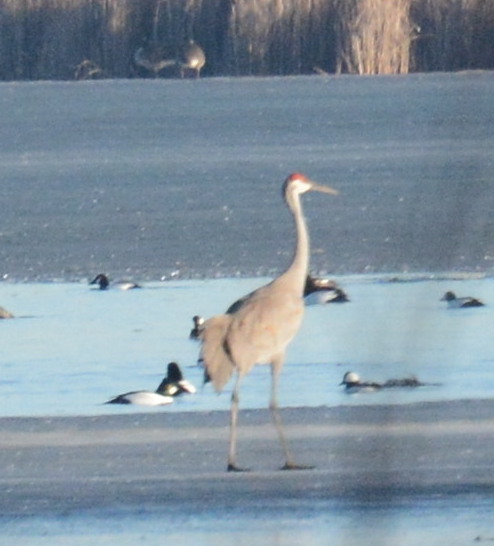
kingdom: Animalia
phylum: Chordata
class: Aves
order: Gruiformes
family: Gruidae
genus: Grus
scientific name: Grus canadensis
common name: Sandhill crane
